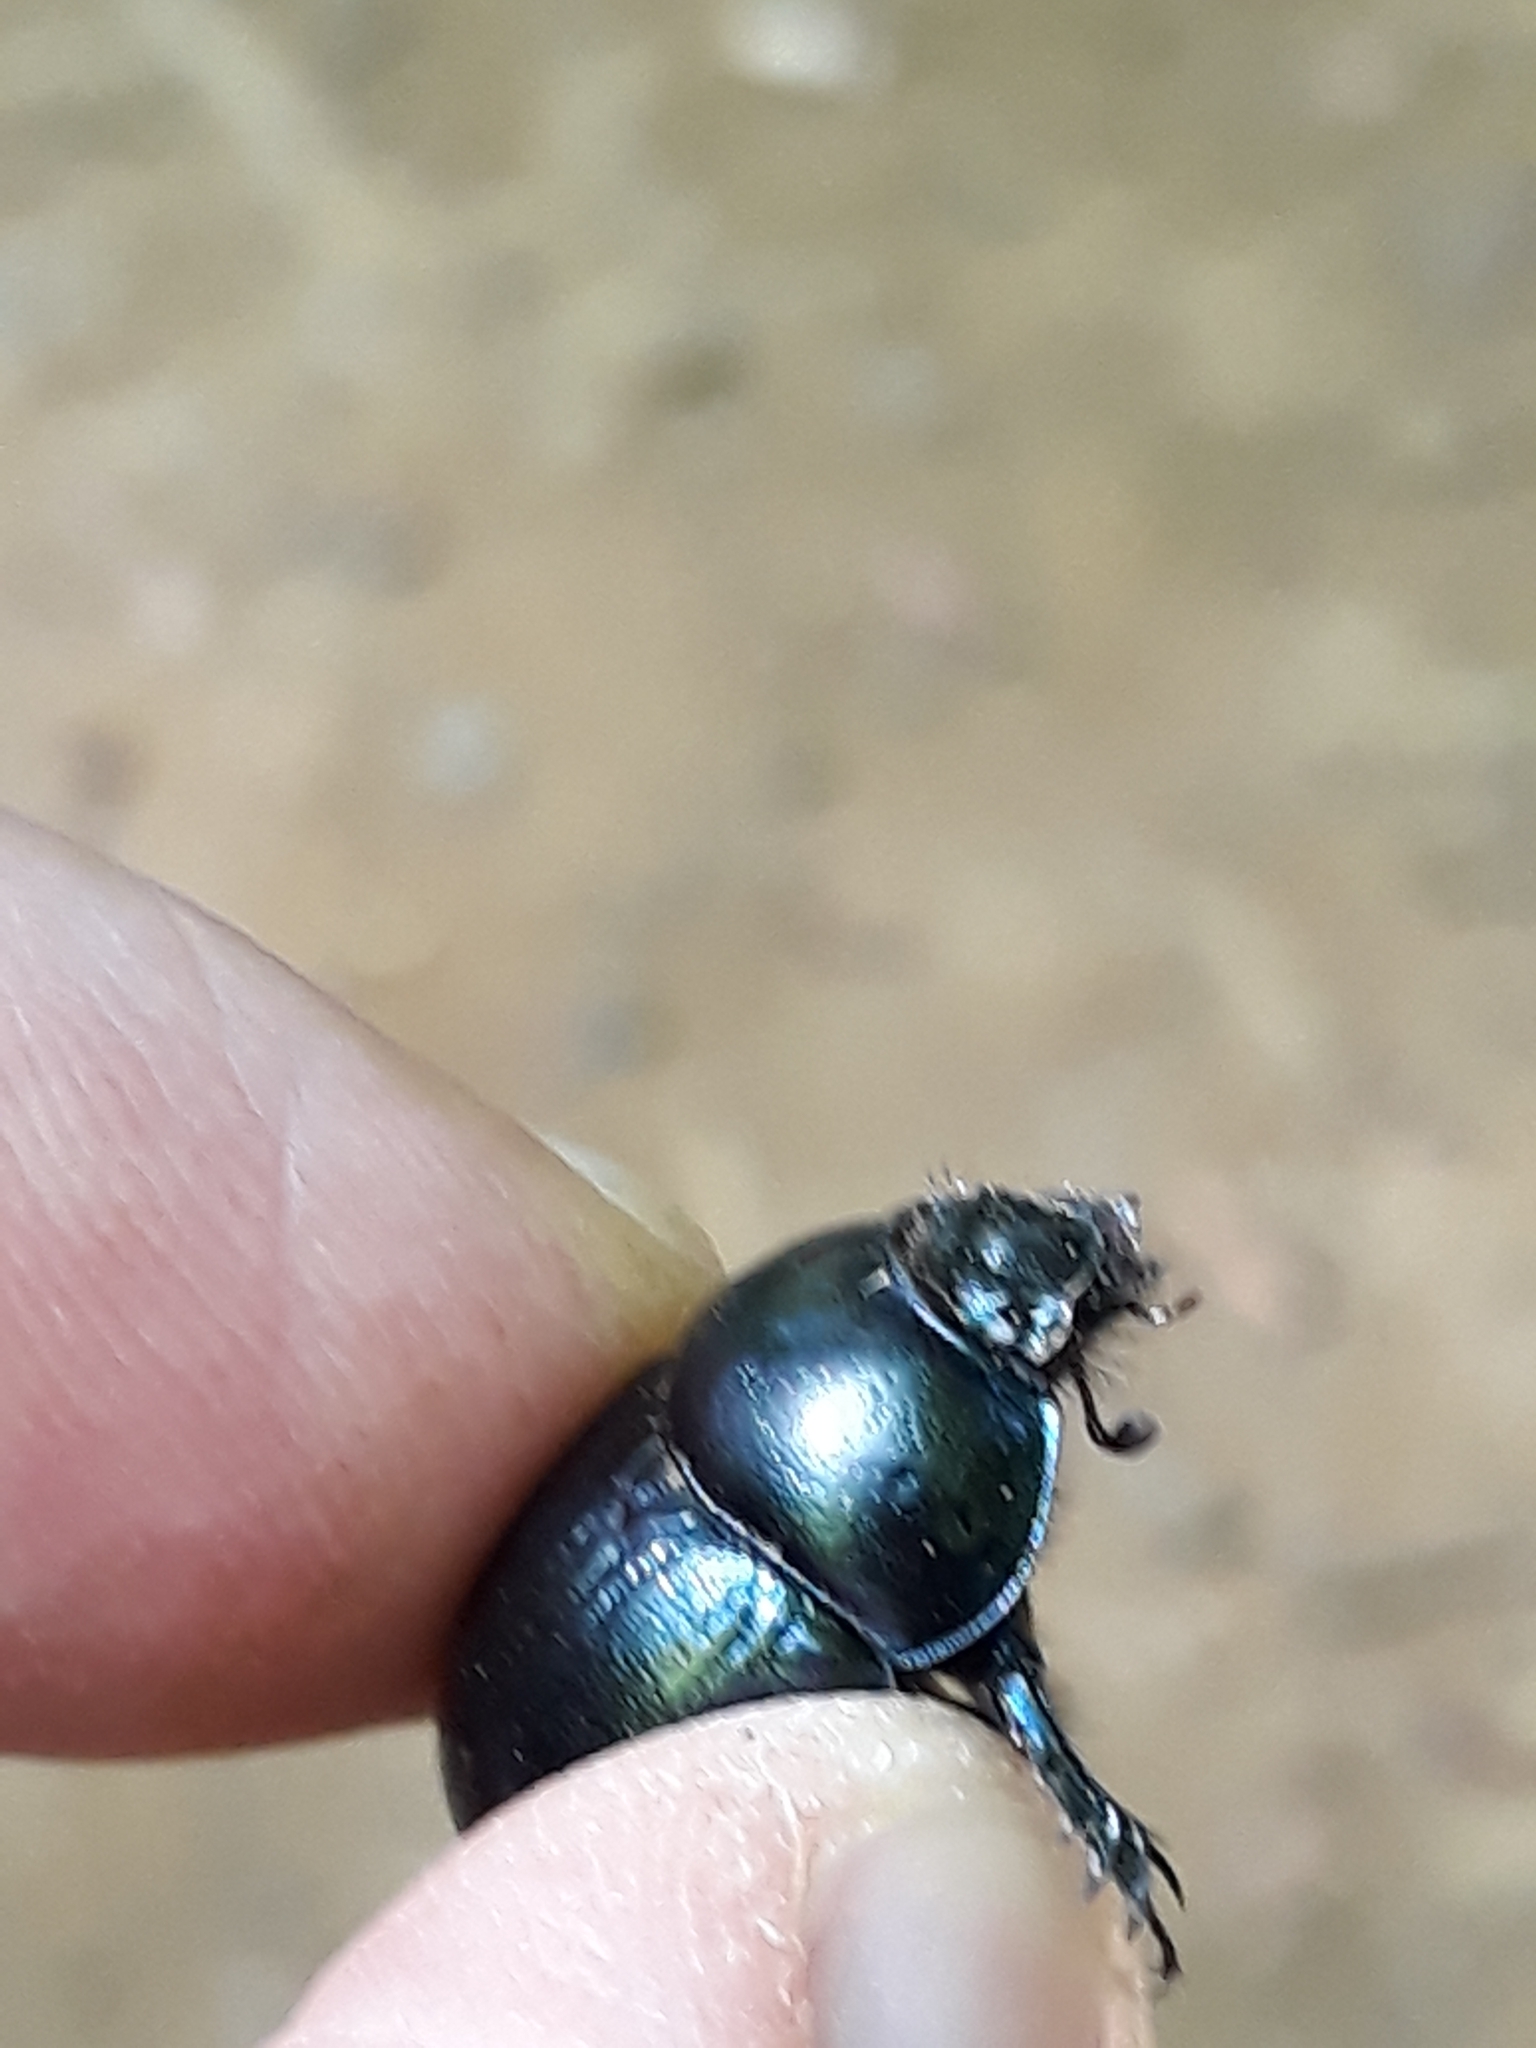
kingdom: Animalia
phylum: Arthropoda
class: Insecta
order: Coleoptera
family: Geotrupidae
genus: Anoplotrupes
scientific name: Anoplotrupes stercorosus
